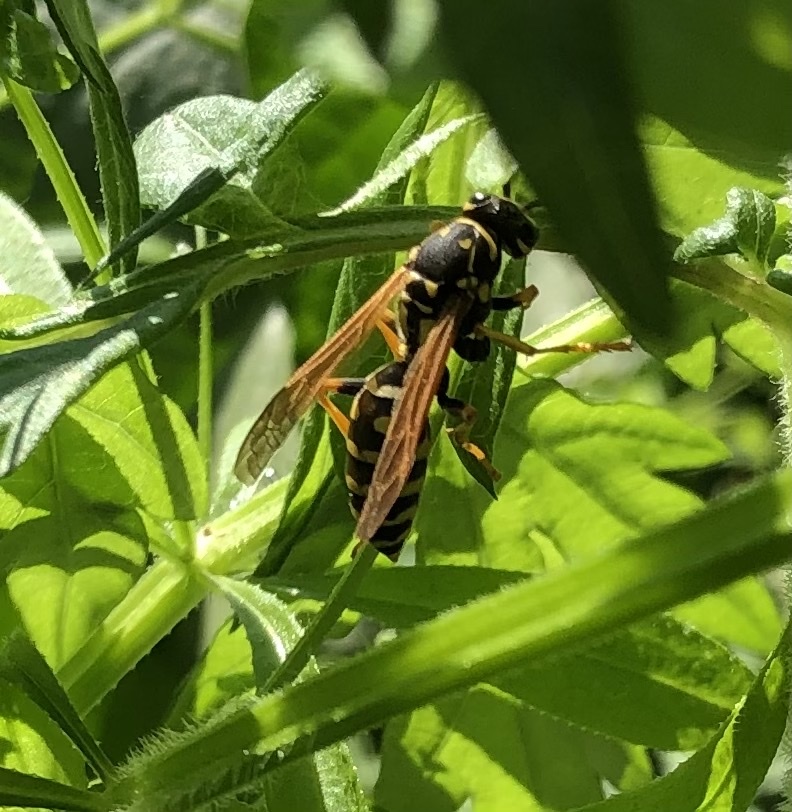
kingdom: Animalia
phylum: Arthropoda
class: Insecta
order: Hymenoptera
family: Eumenidae
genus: Polistes
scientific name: Polistes dominula
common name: Paper wasp
